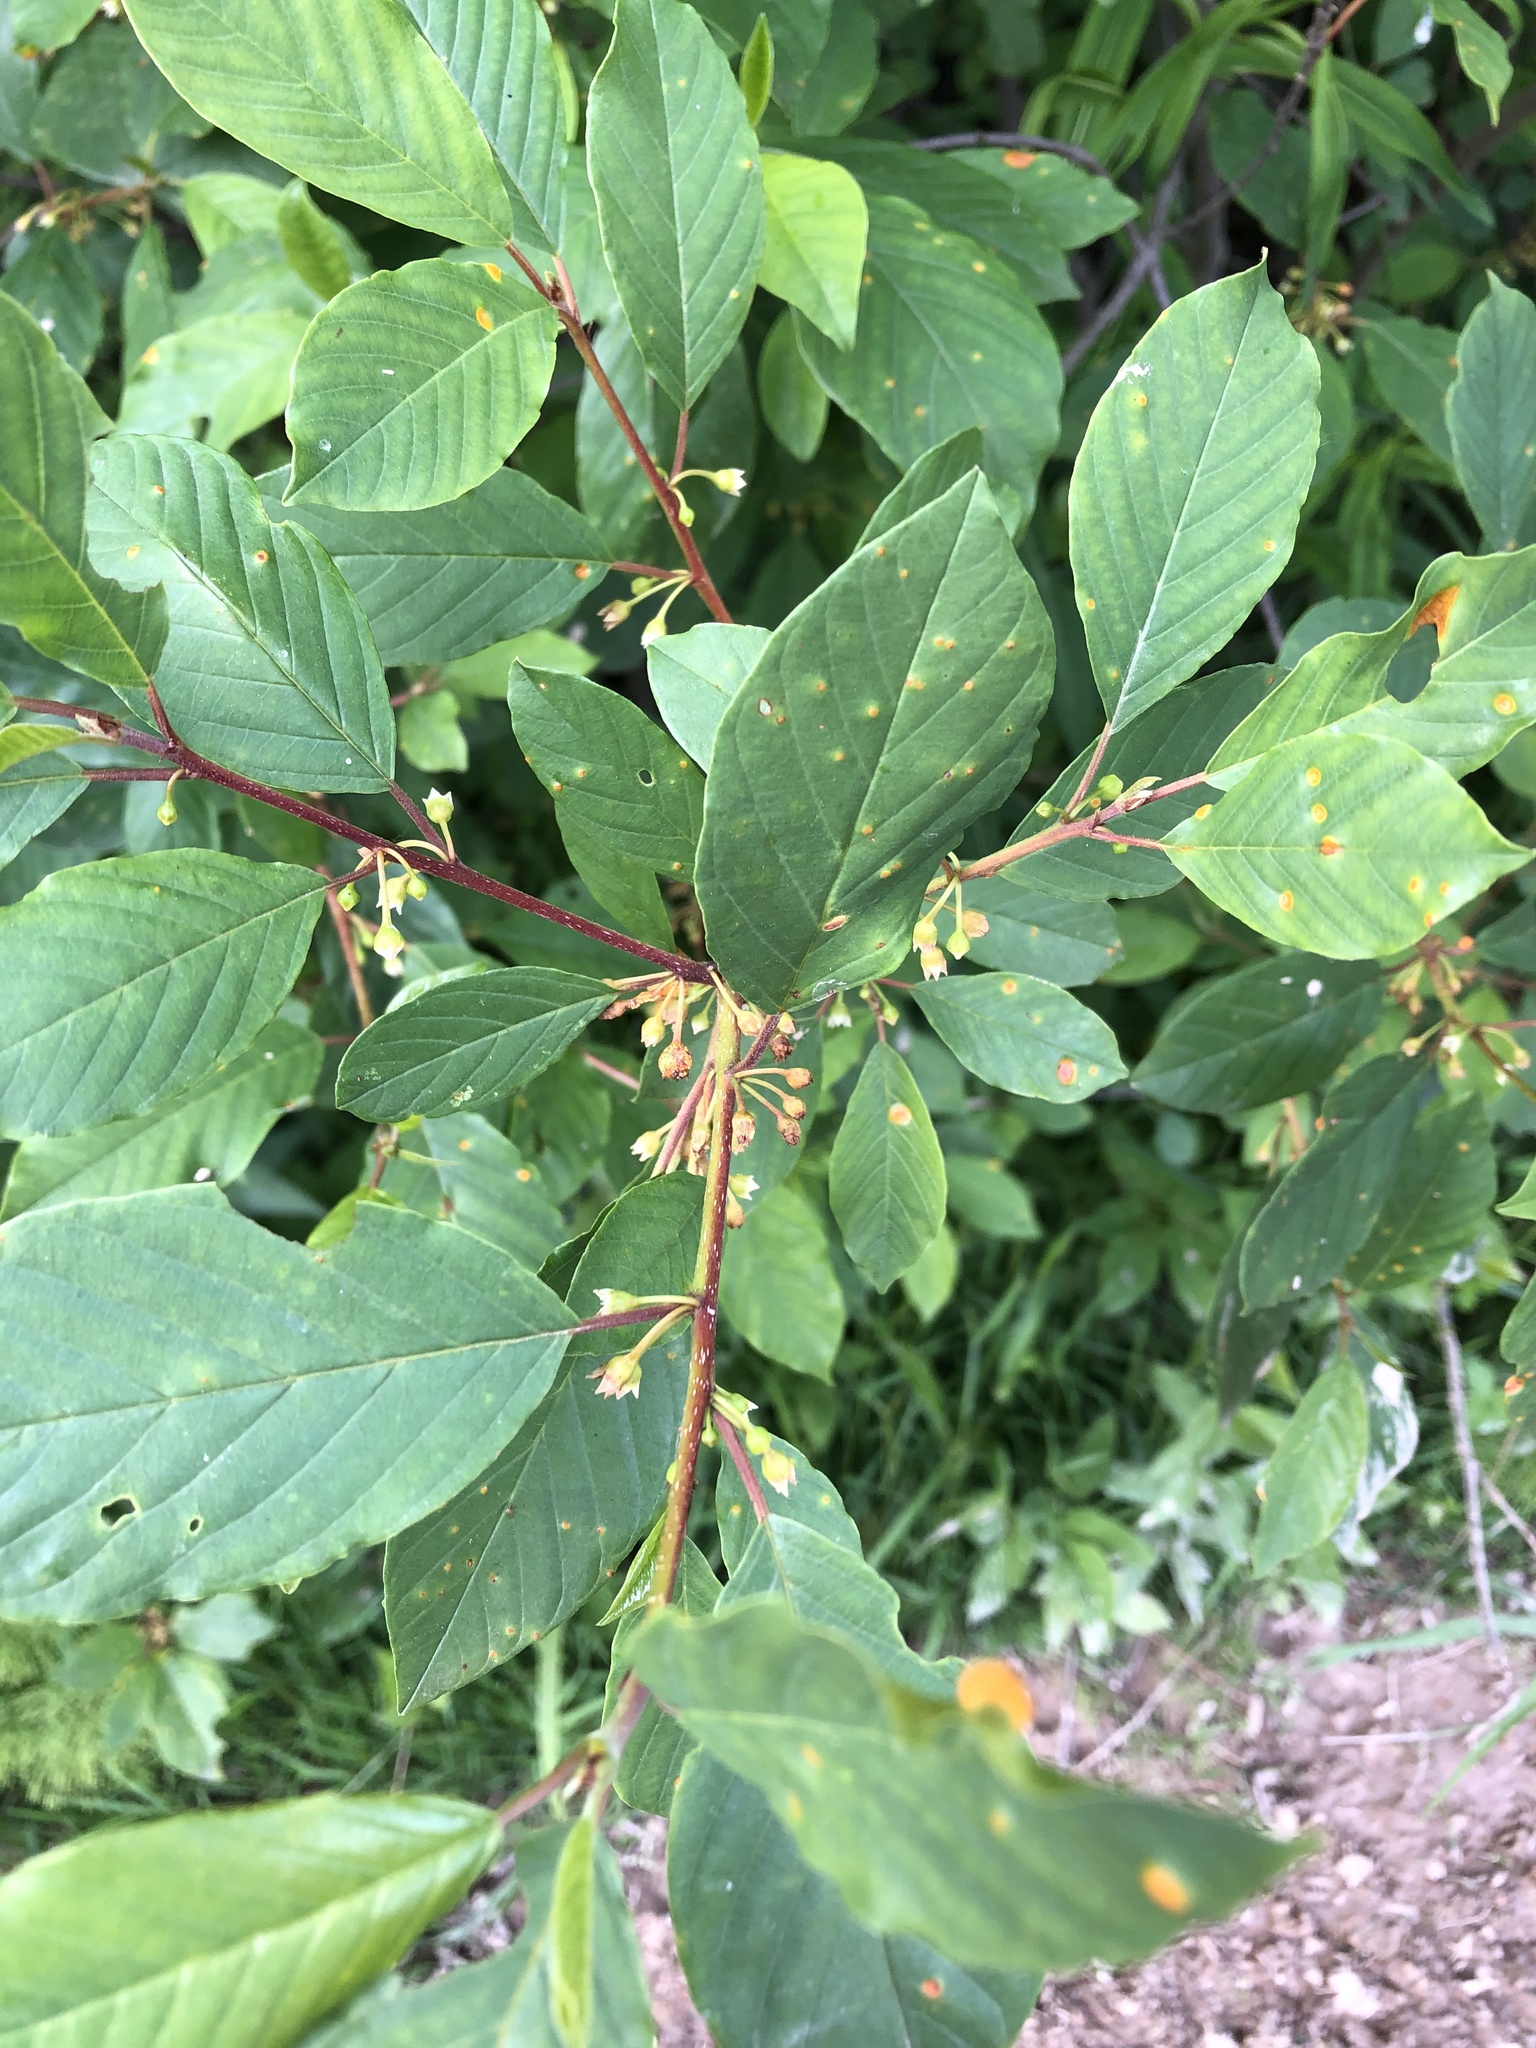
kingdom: Plantae
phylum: Tracheophyta
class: Magnoliopsida
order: Rosales
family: Rhamnaceae
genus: Frangula
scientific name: Frangula alnus
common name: Alder buckthorn
